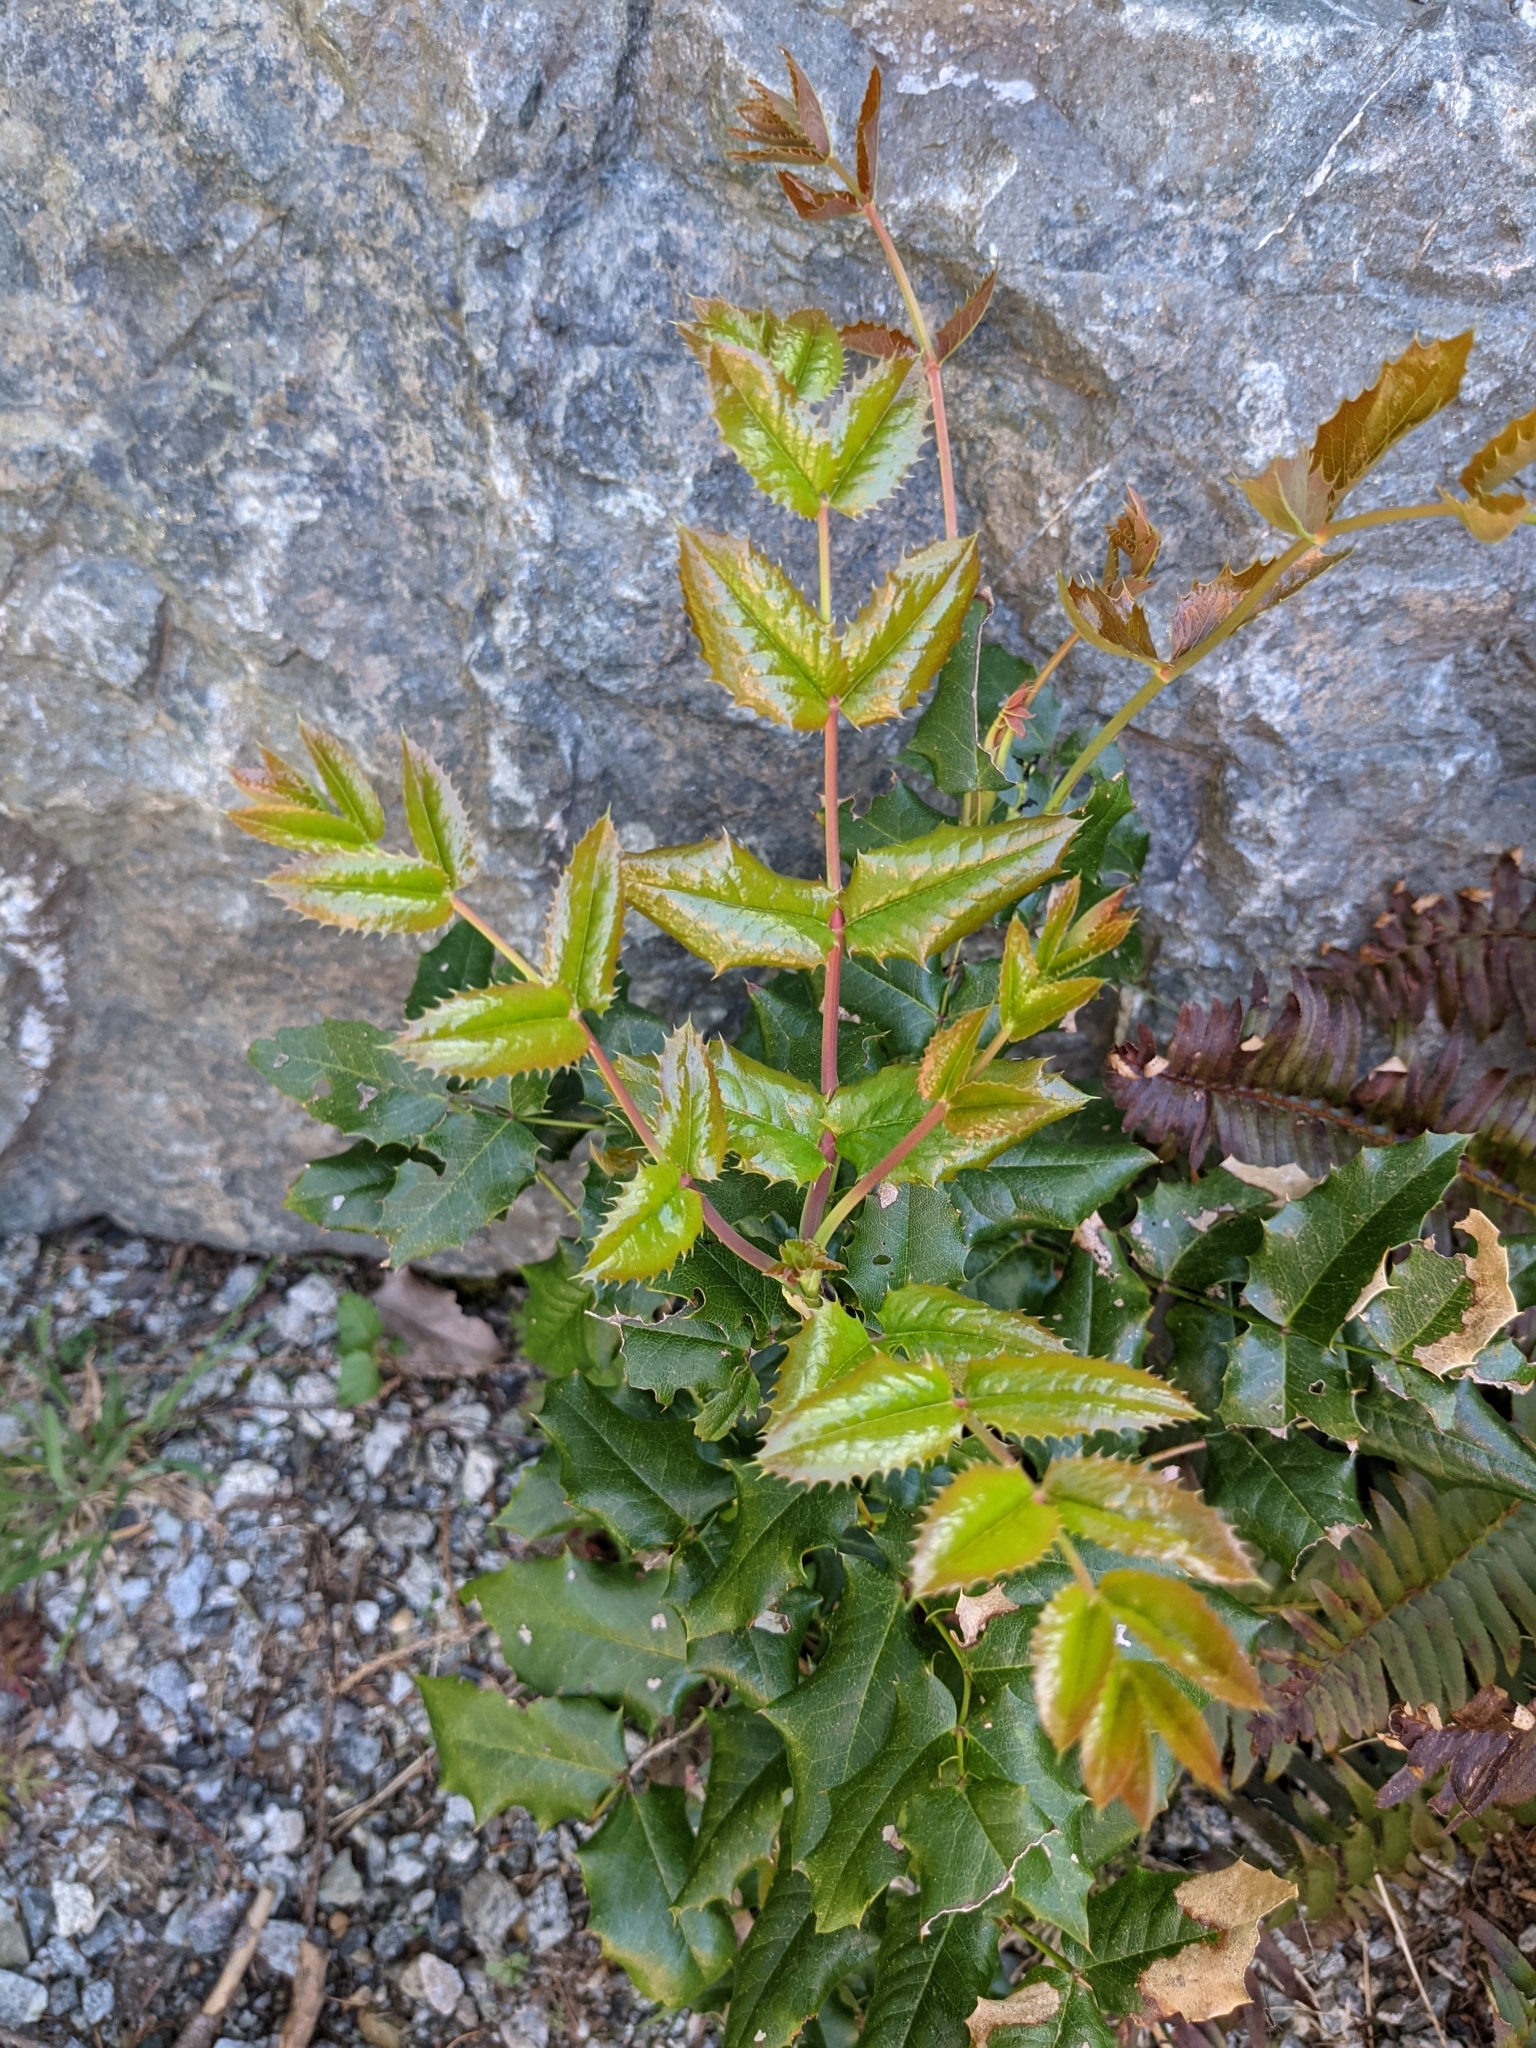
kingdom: Plantae
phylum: Tracheophyta
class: Magnoliopsida
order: Ranunculales
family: Berberidaceae
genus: Mahonia
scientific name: Mahonia aquifolium
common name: Oregon-grape
